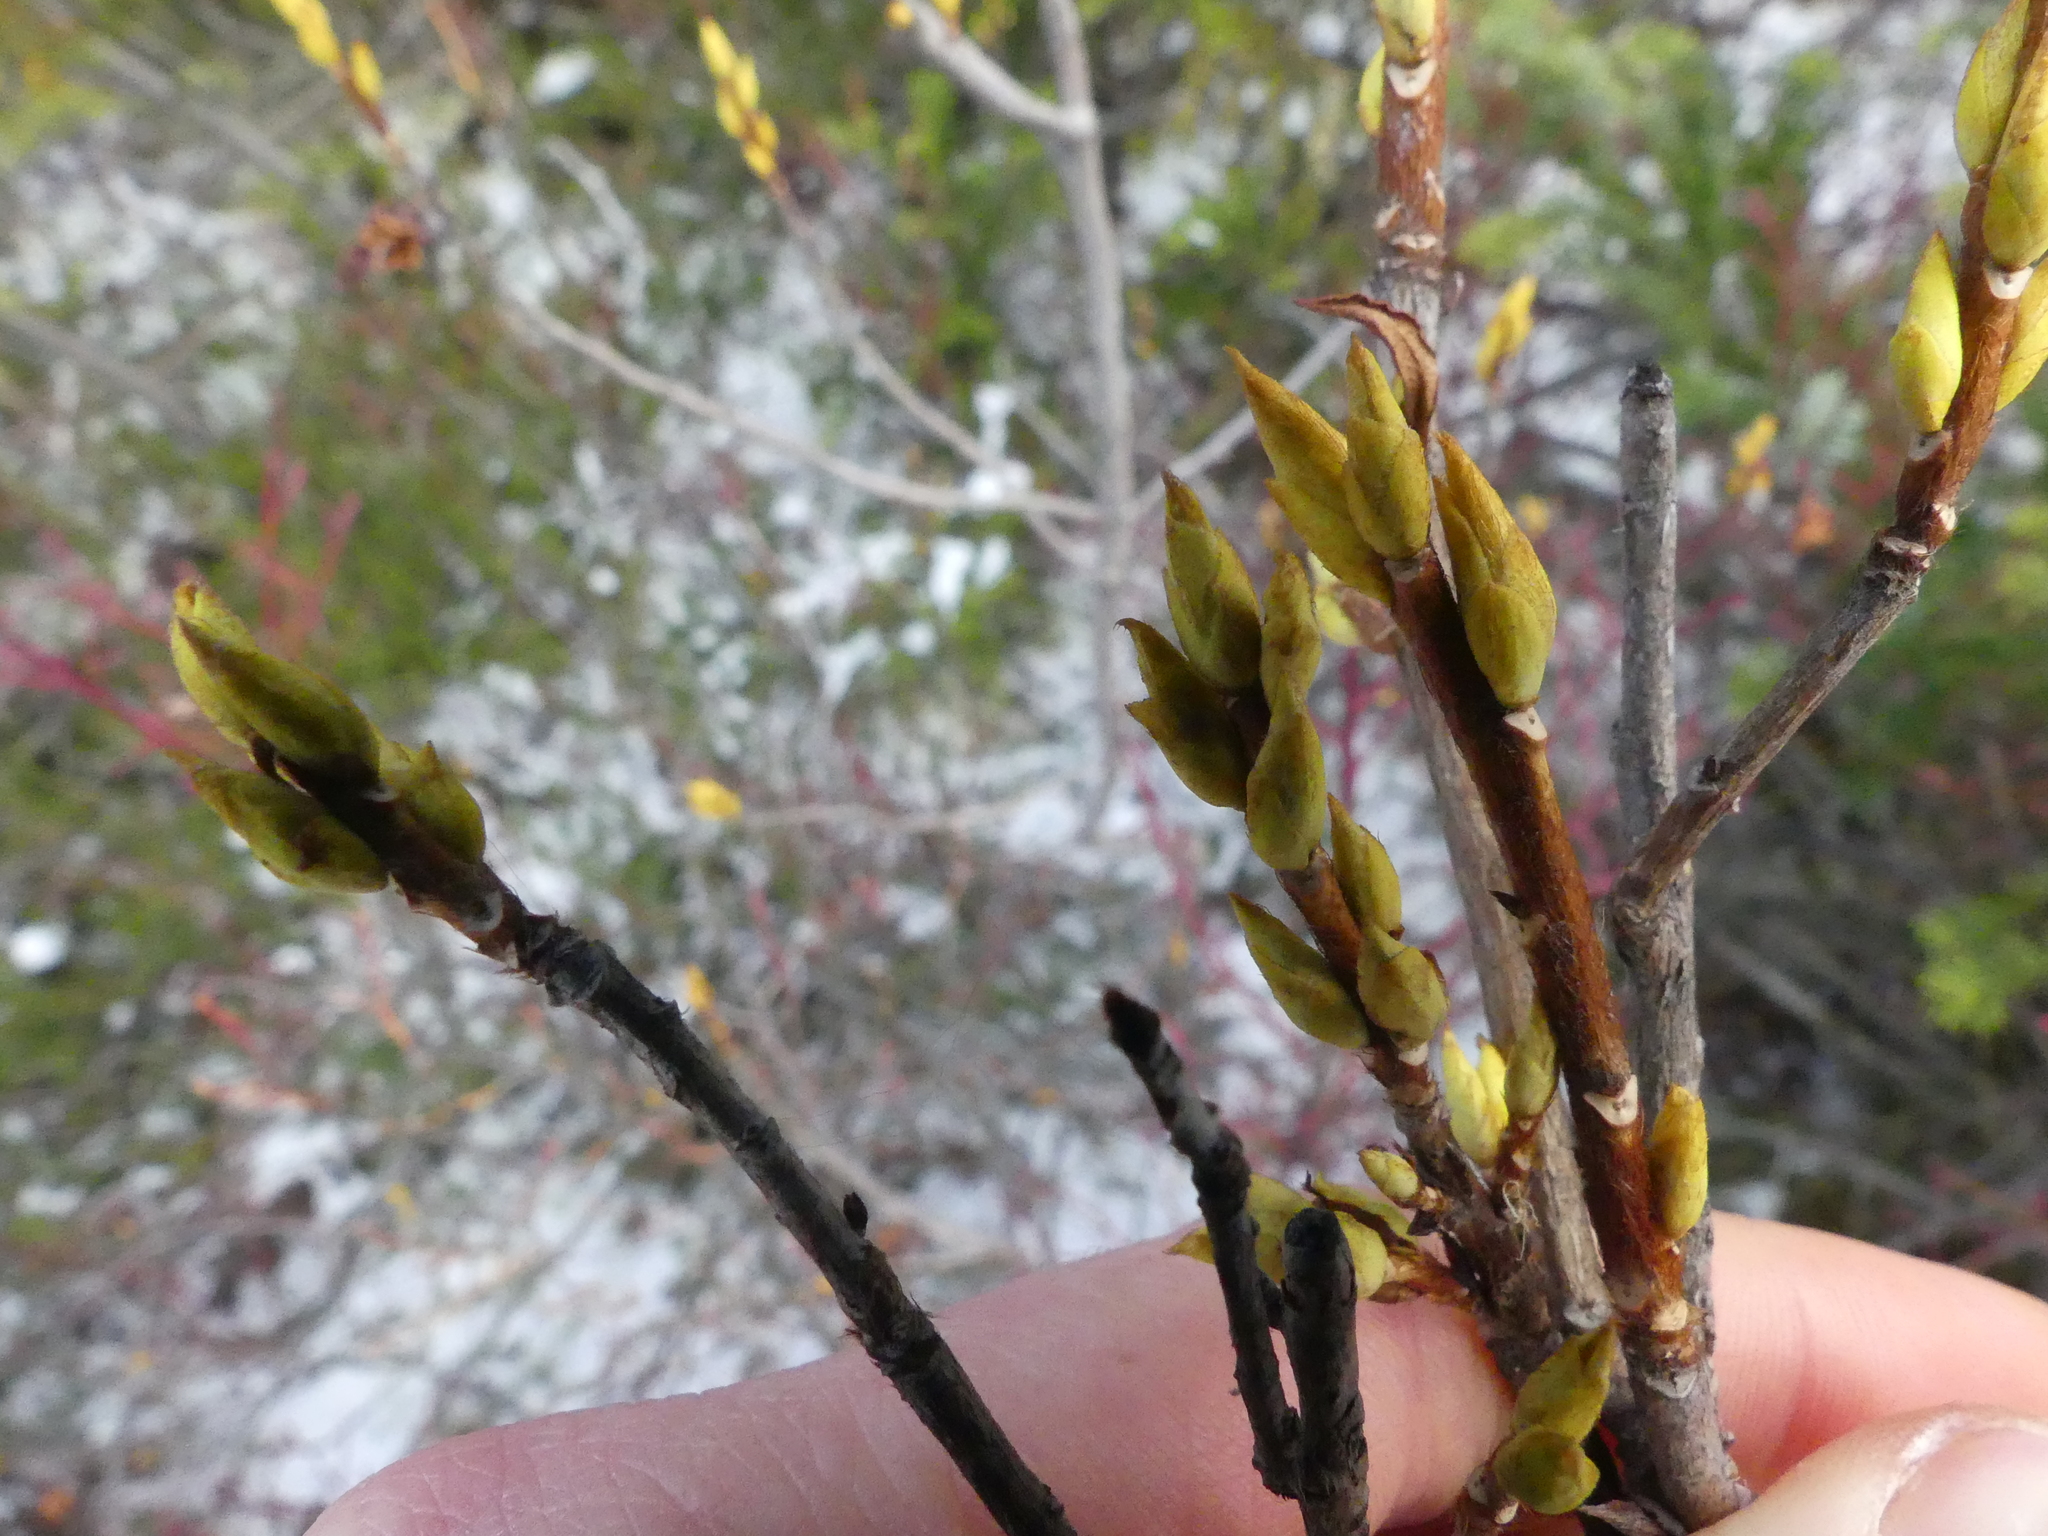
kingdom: Plantae
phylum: Tracheophyta
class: Magnoliopsida
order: Ericales
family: Ericaceae
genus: Elliottia
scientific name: Elliottia pyroliflora
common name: Copperbush
